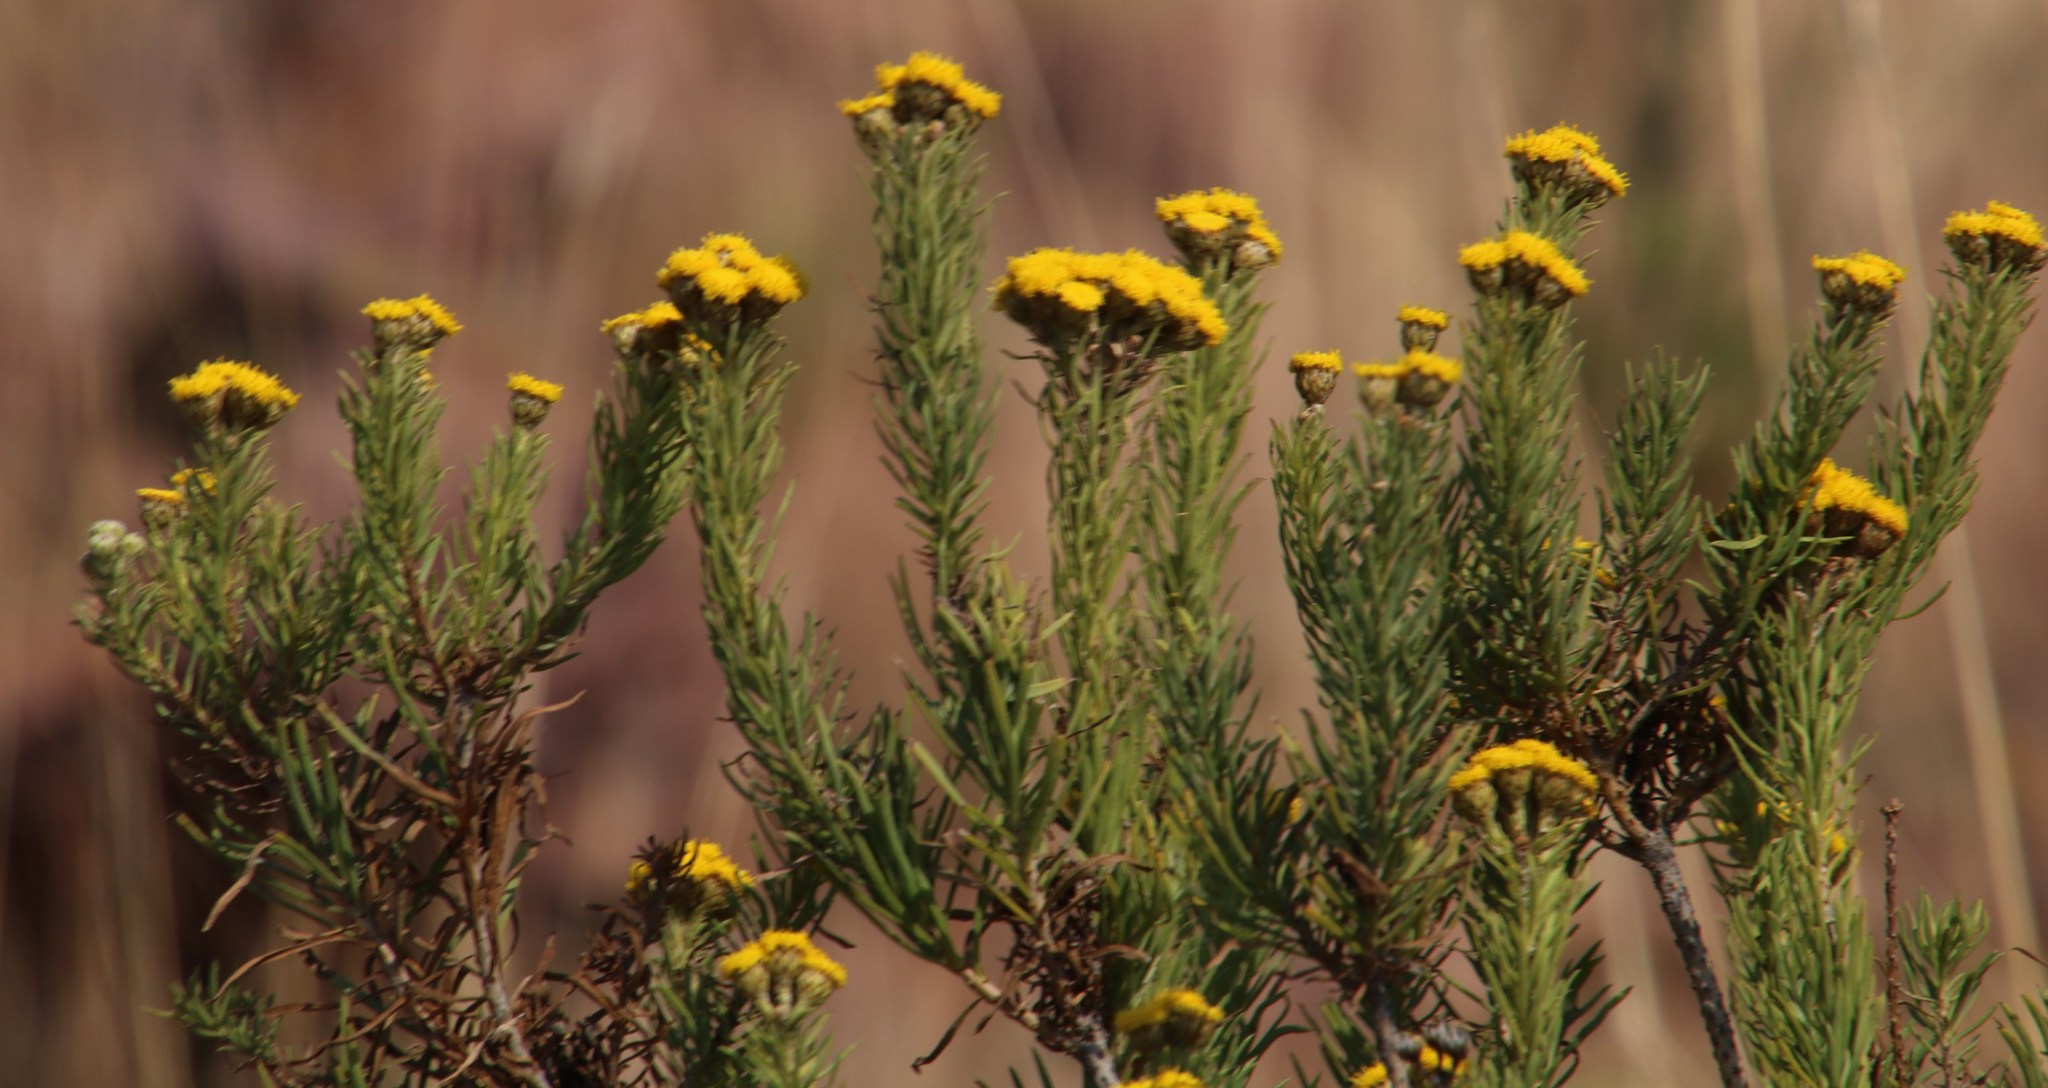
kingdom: Plantae
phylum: Tracheophyta
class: Magnoliopsida
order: Asterales
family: Asteraceae
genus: Phymaspermum
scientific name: Phymaspermum athanasioides
